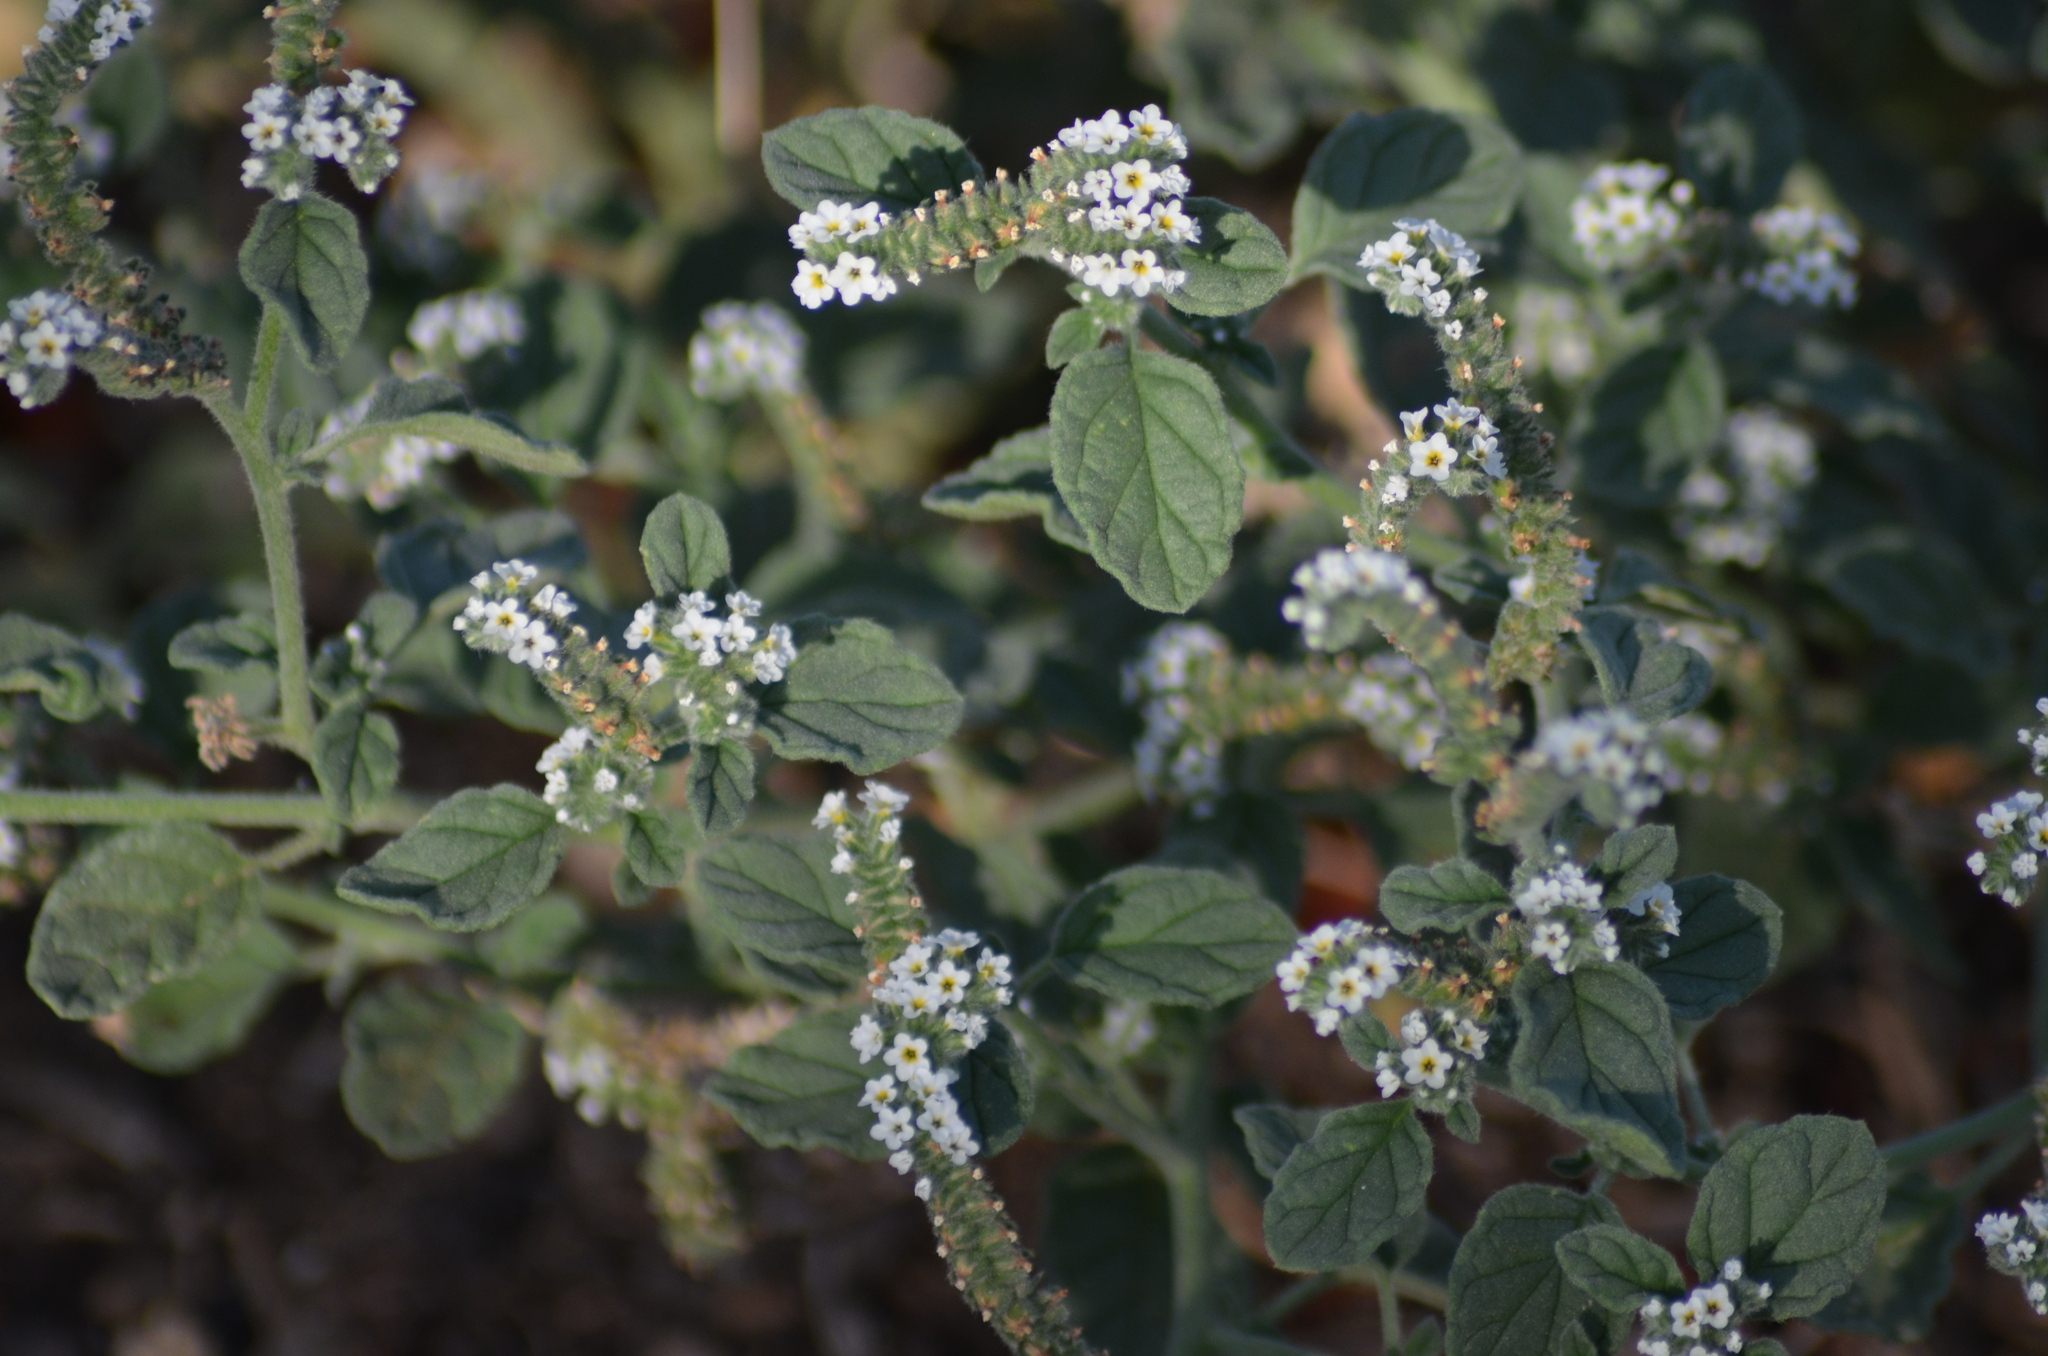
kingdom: Plantae
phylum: Tracheophyta
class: Magnoliopsida
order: Boraginales
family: Heliotropiaceae
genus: Heliotropium
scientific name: Heliotropium europaeum
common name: European heliotrope
